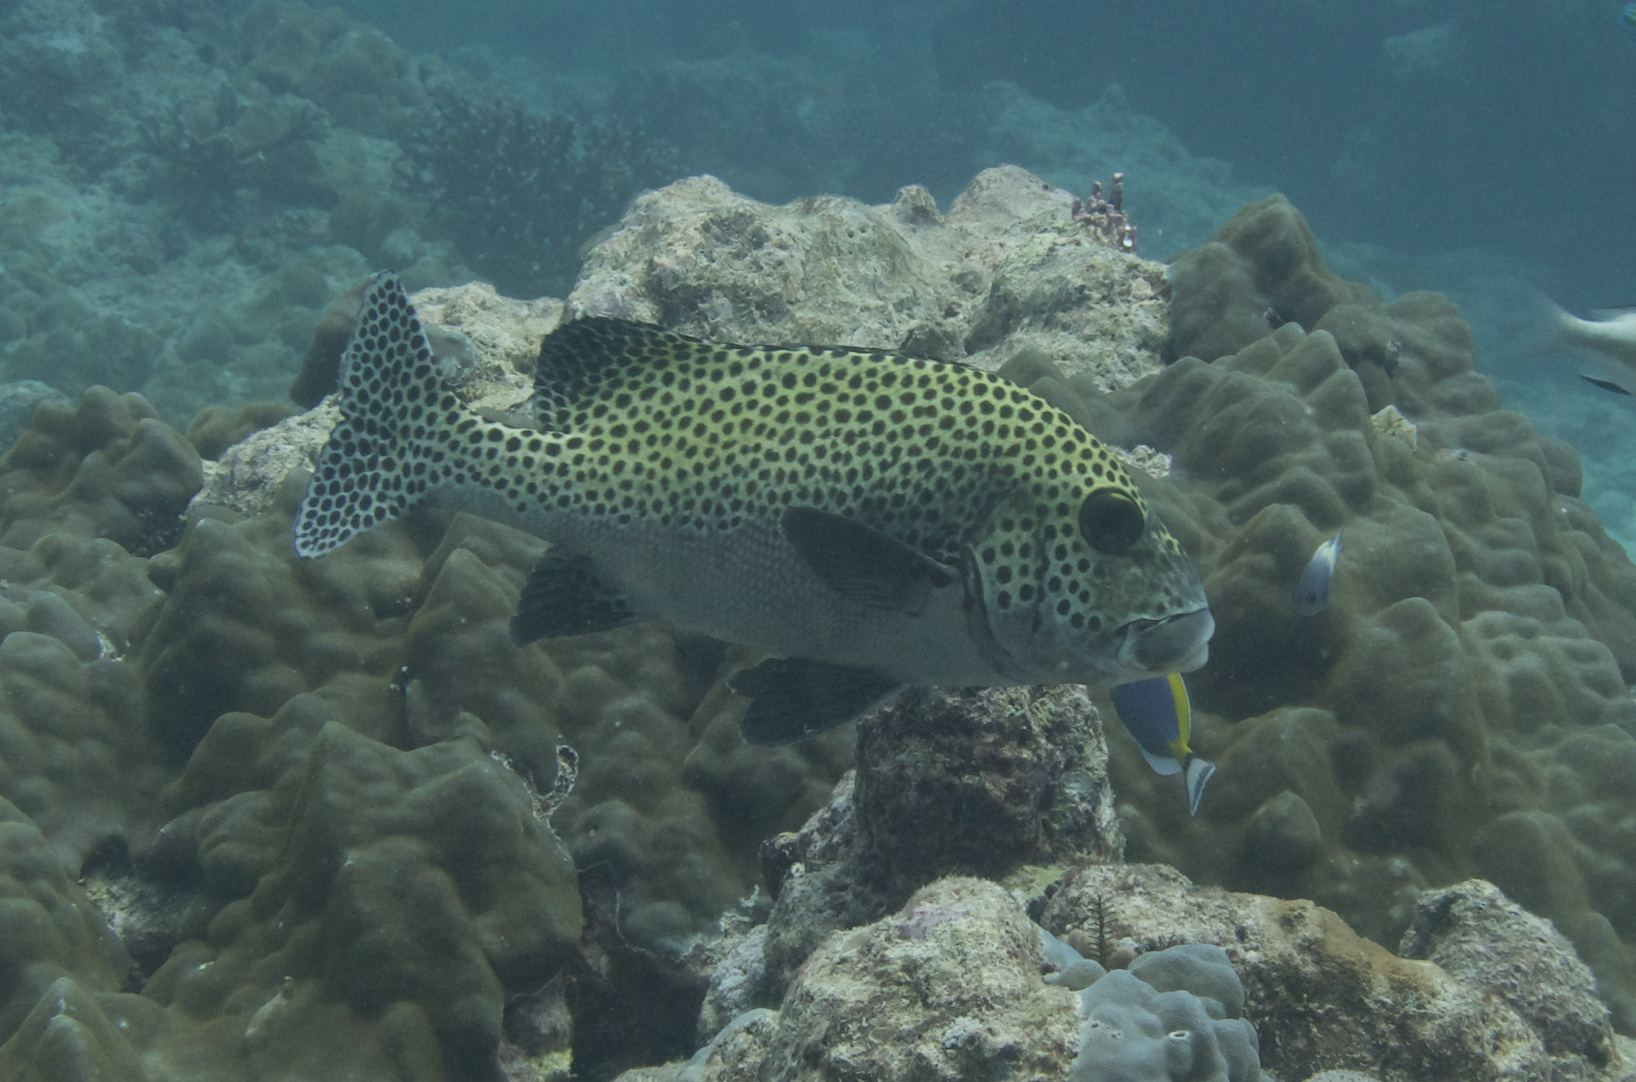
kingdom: Animalia
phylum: Chordata
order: Perciformes
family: Haemulidae
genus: Plectorhinchus
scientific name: Plectorhinchus chaetodonoides
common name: Harlequin sweetlips
